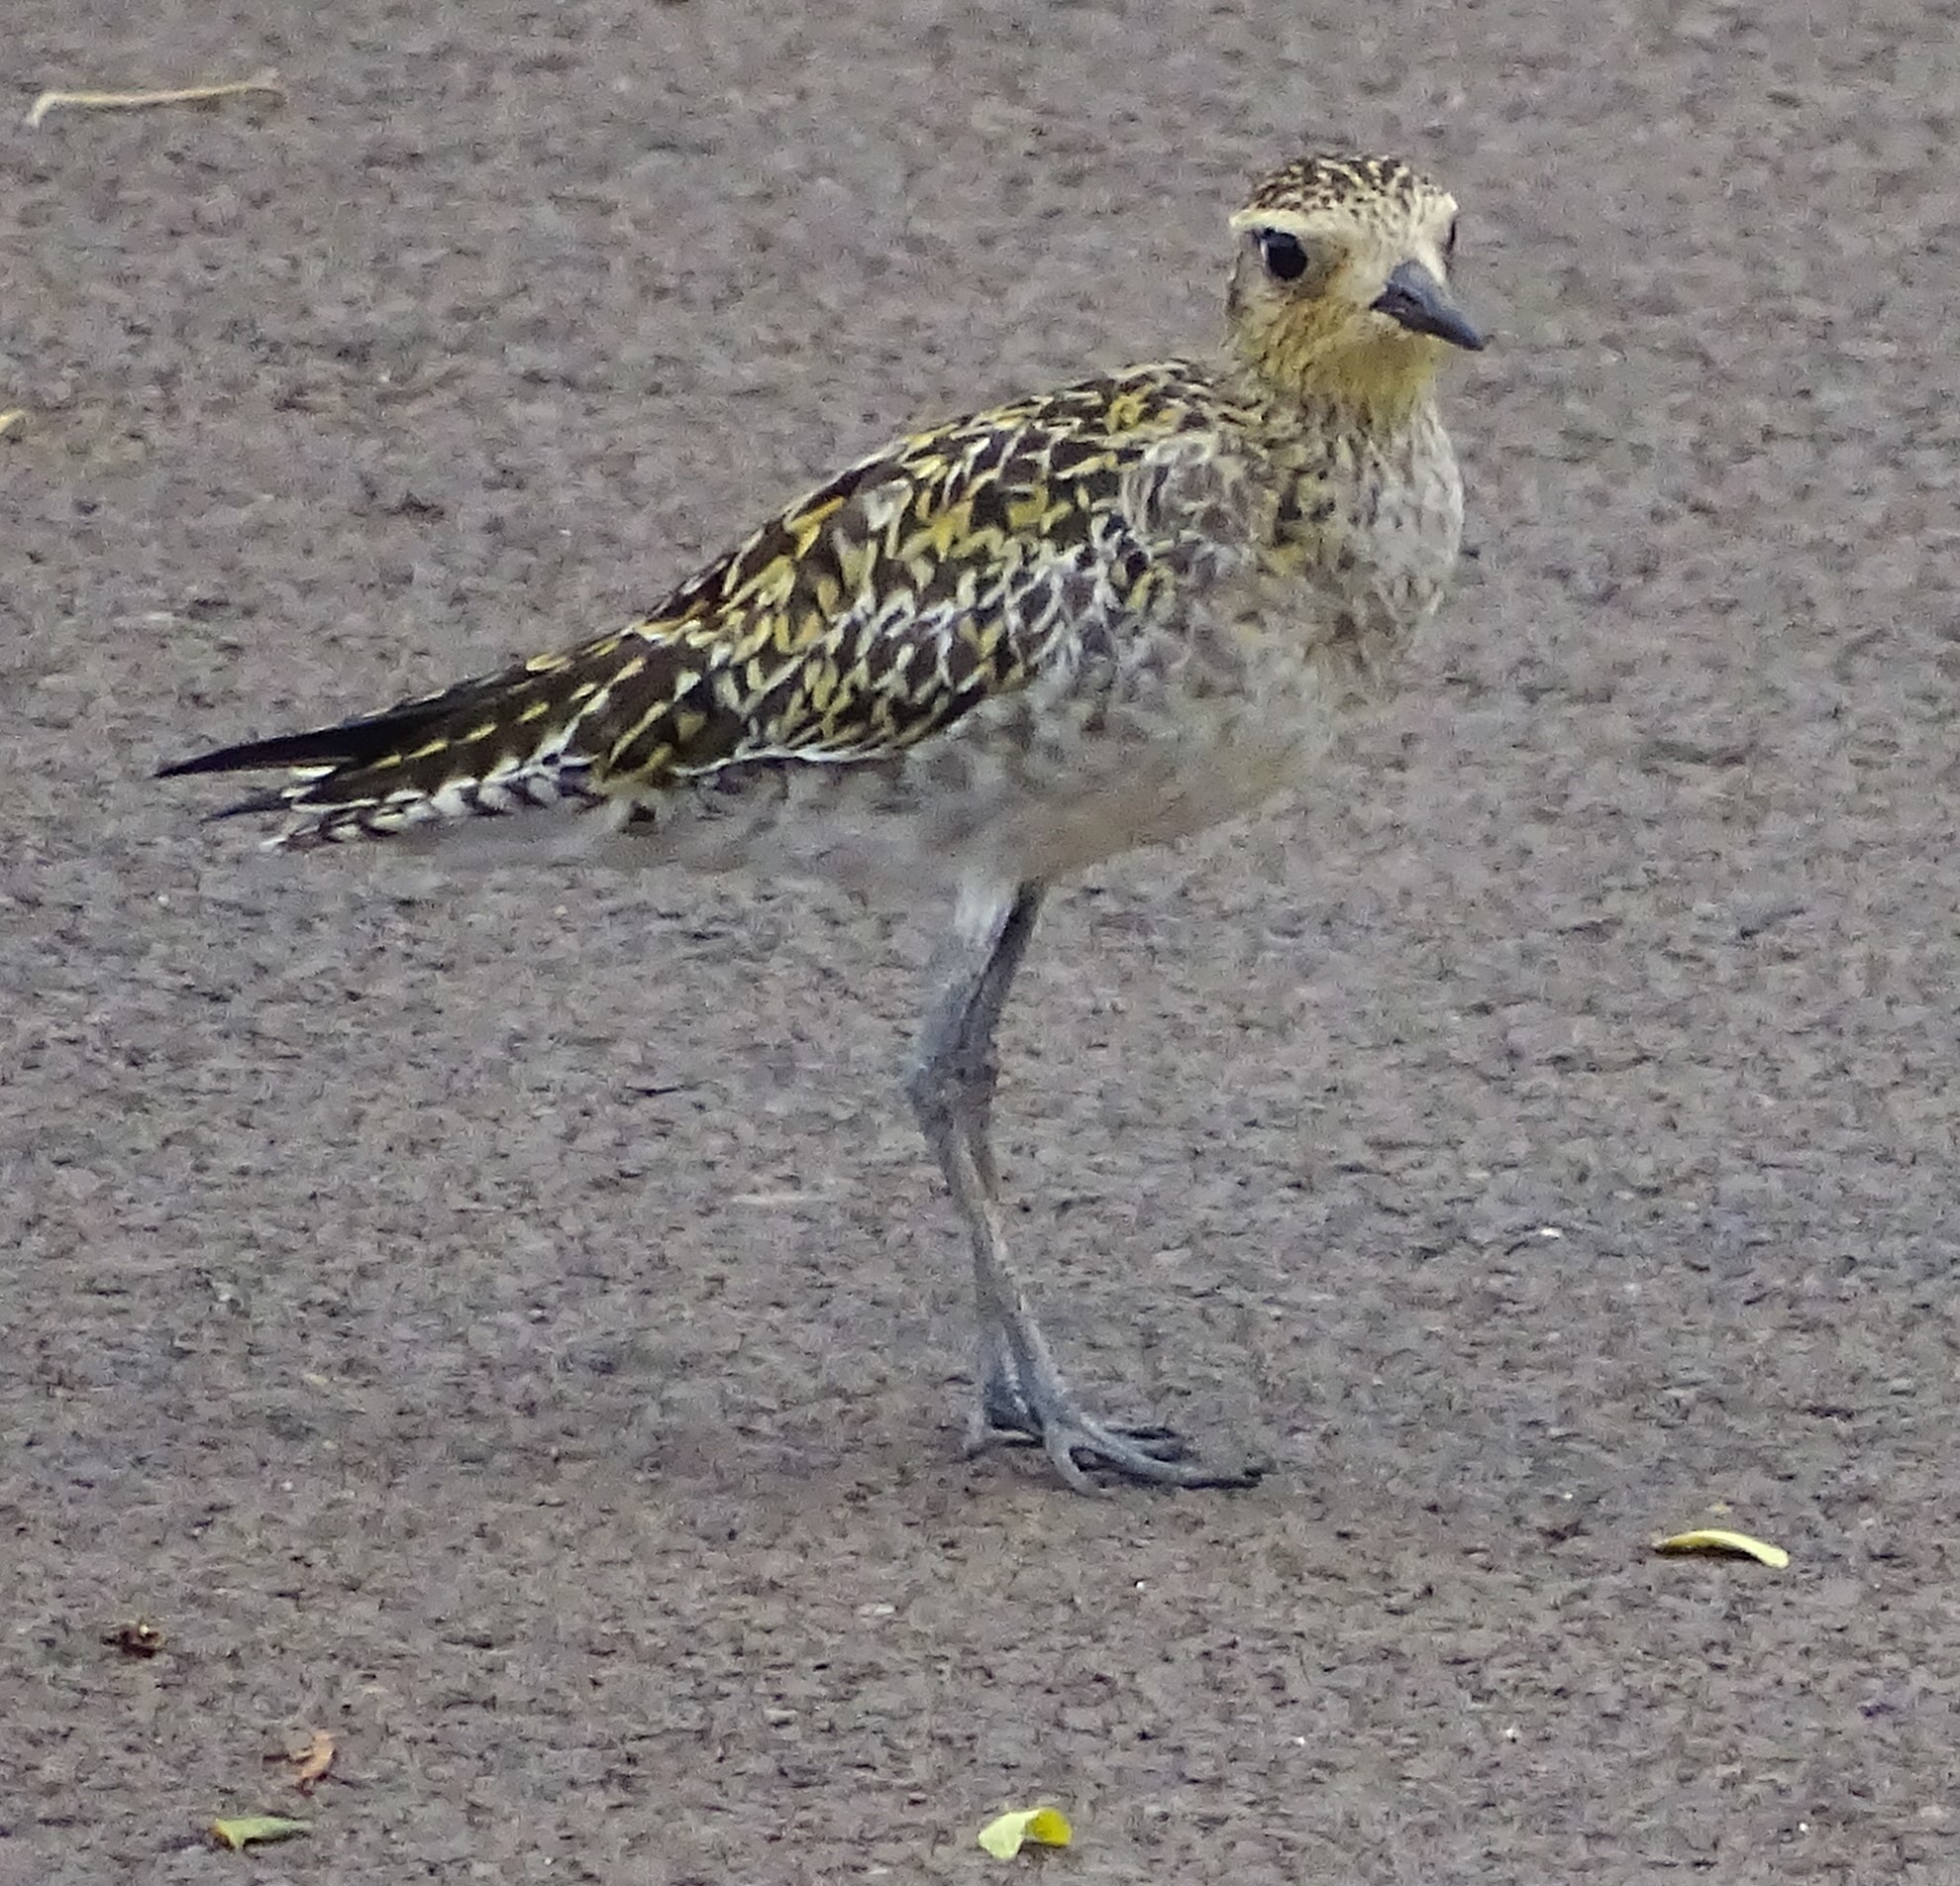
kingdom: Animalia
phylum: Chordata
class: Aves
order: Charadriiformes
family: Charadriidae
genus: Pluvialis
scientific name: Pluvialis fulva
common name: Pacific golden plover
